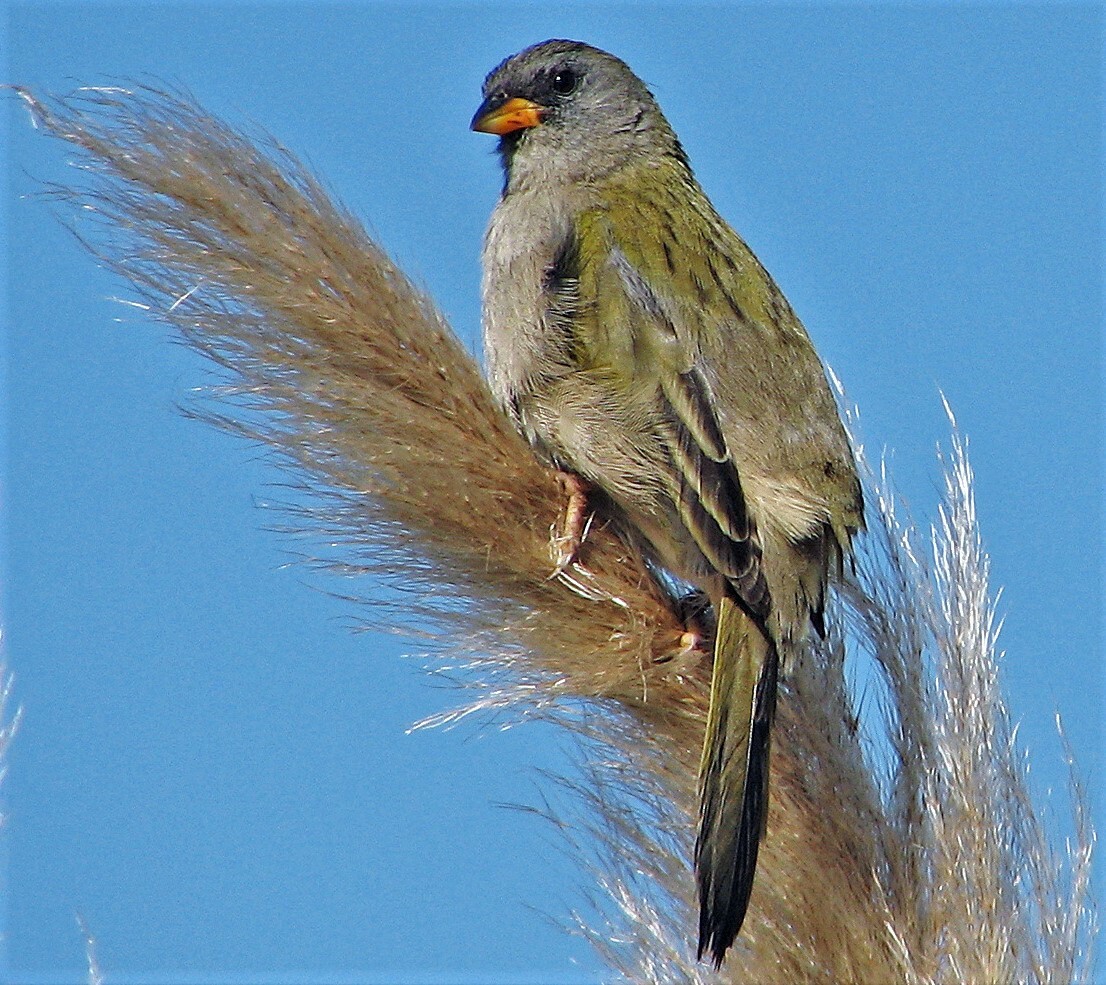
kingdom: Animalia
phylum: Chordata
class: Aves
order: Passeriformes
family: Thraupidae
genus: Embernagra
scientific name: Embernagra platensis
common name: Pampa finch
